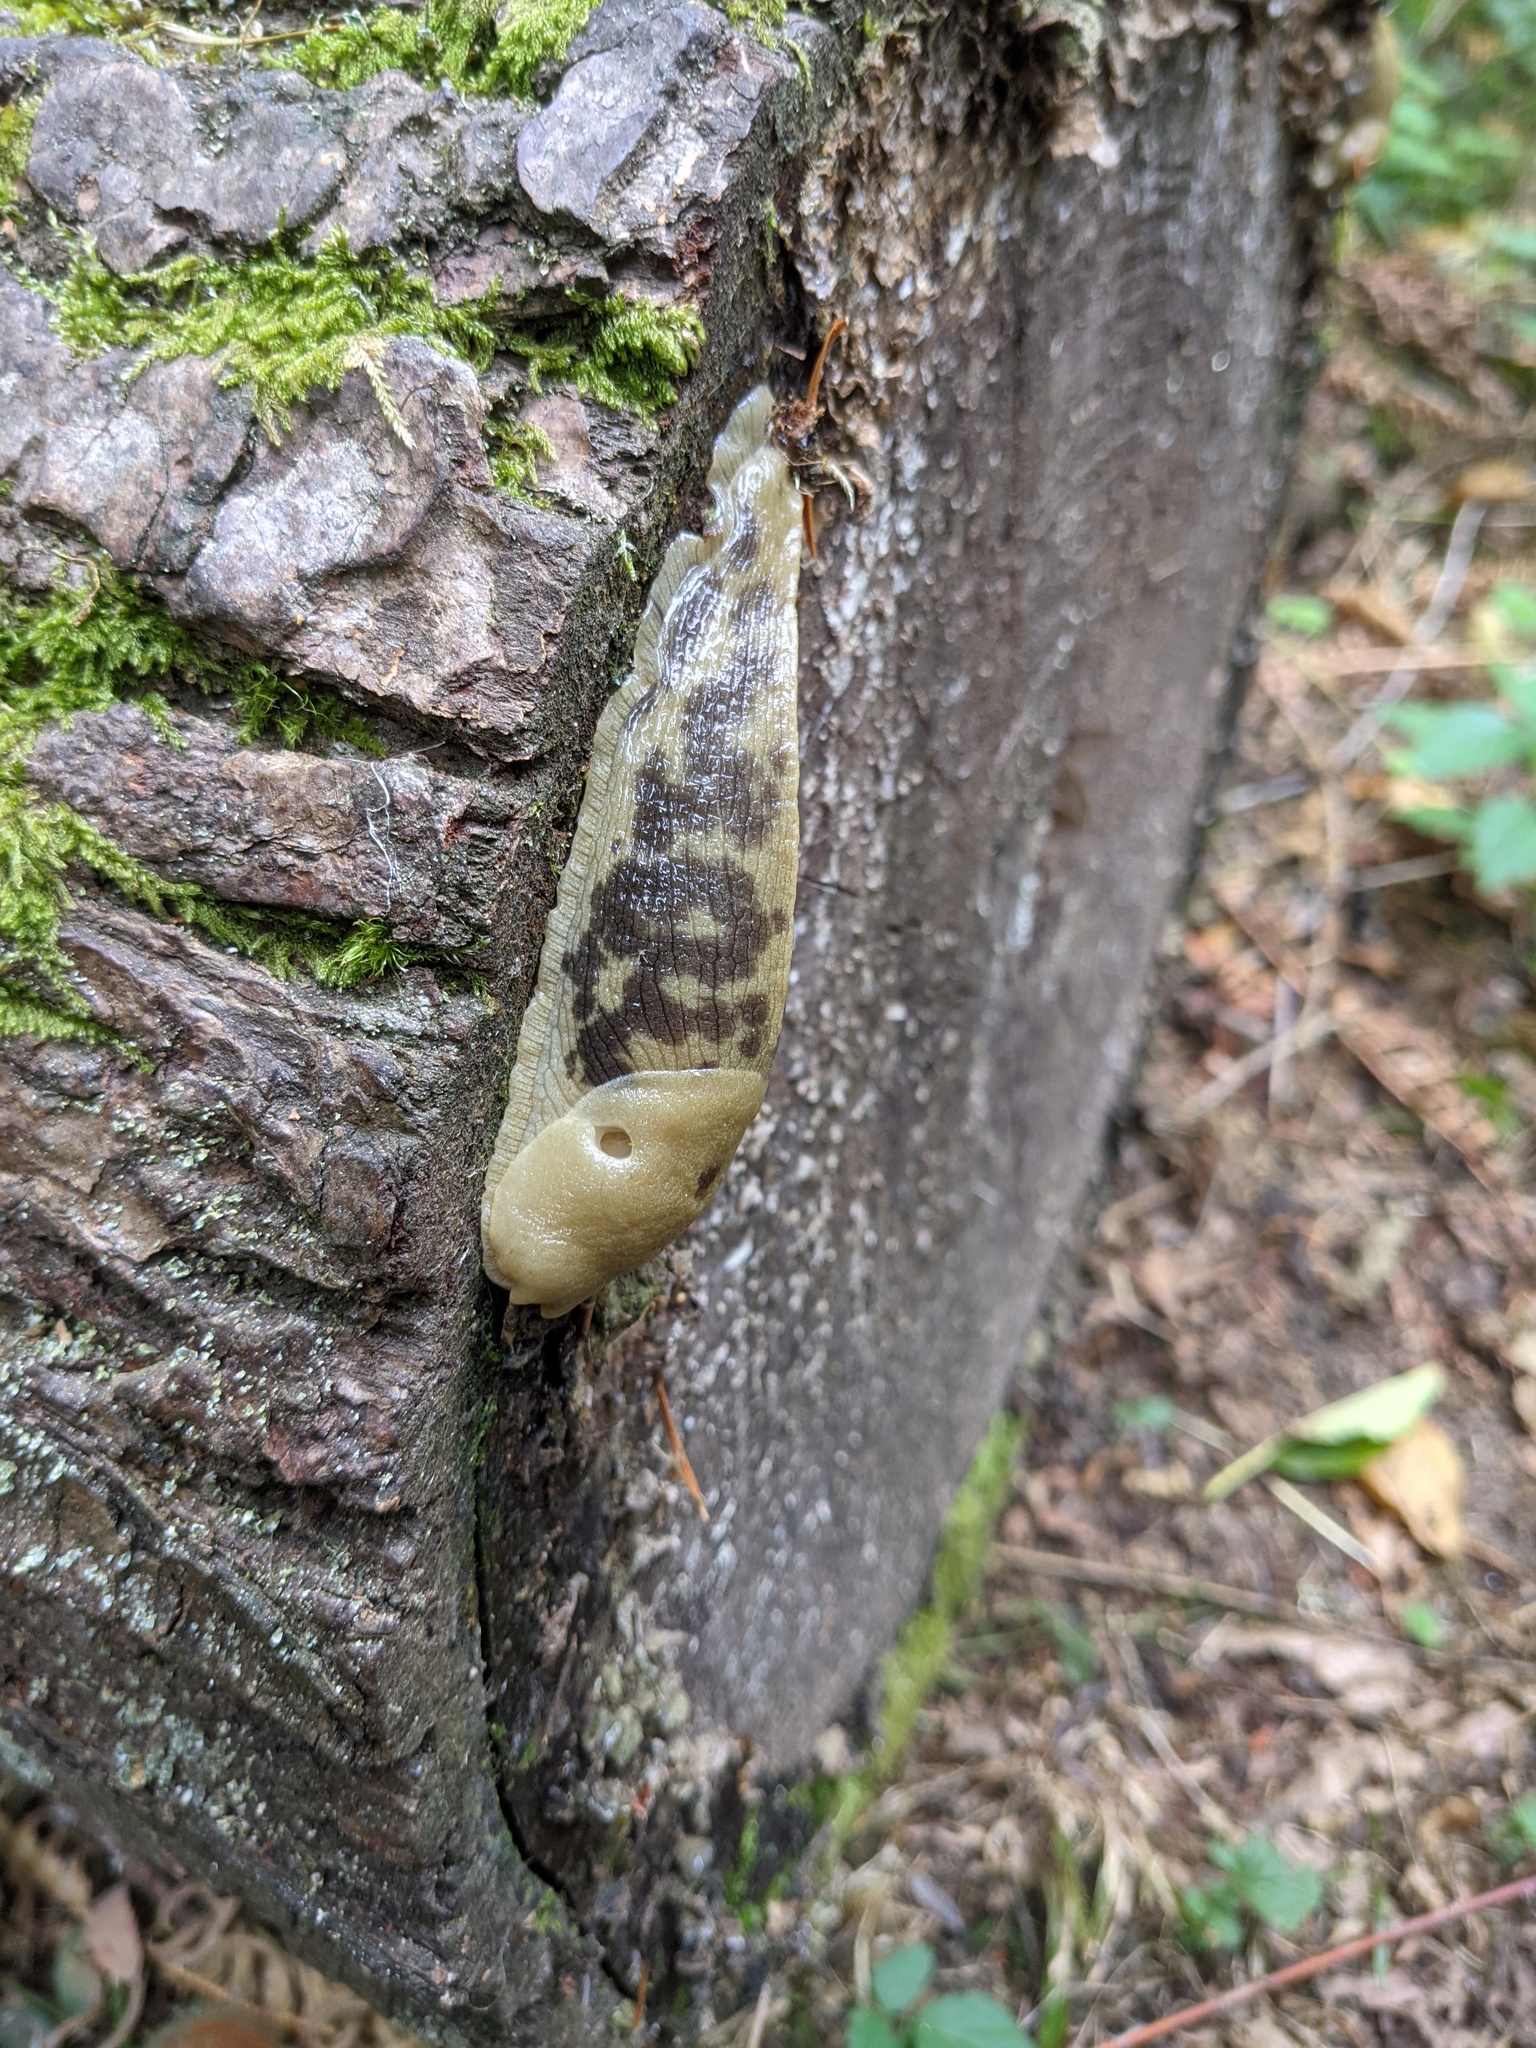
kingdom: Animalia
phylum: Mollusca
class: Gastropoda
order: Stylommatophora
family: Ariolimacidae
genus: Ariolimax
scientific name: Ariolimax columbianus
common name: Pacific banana slug
